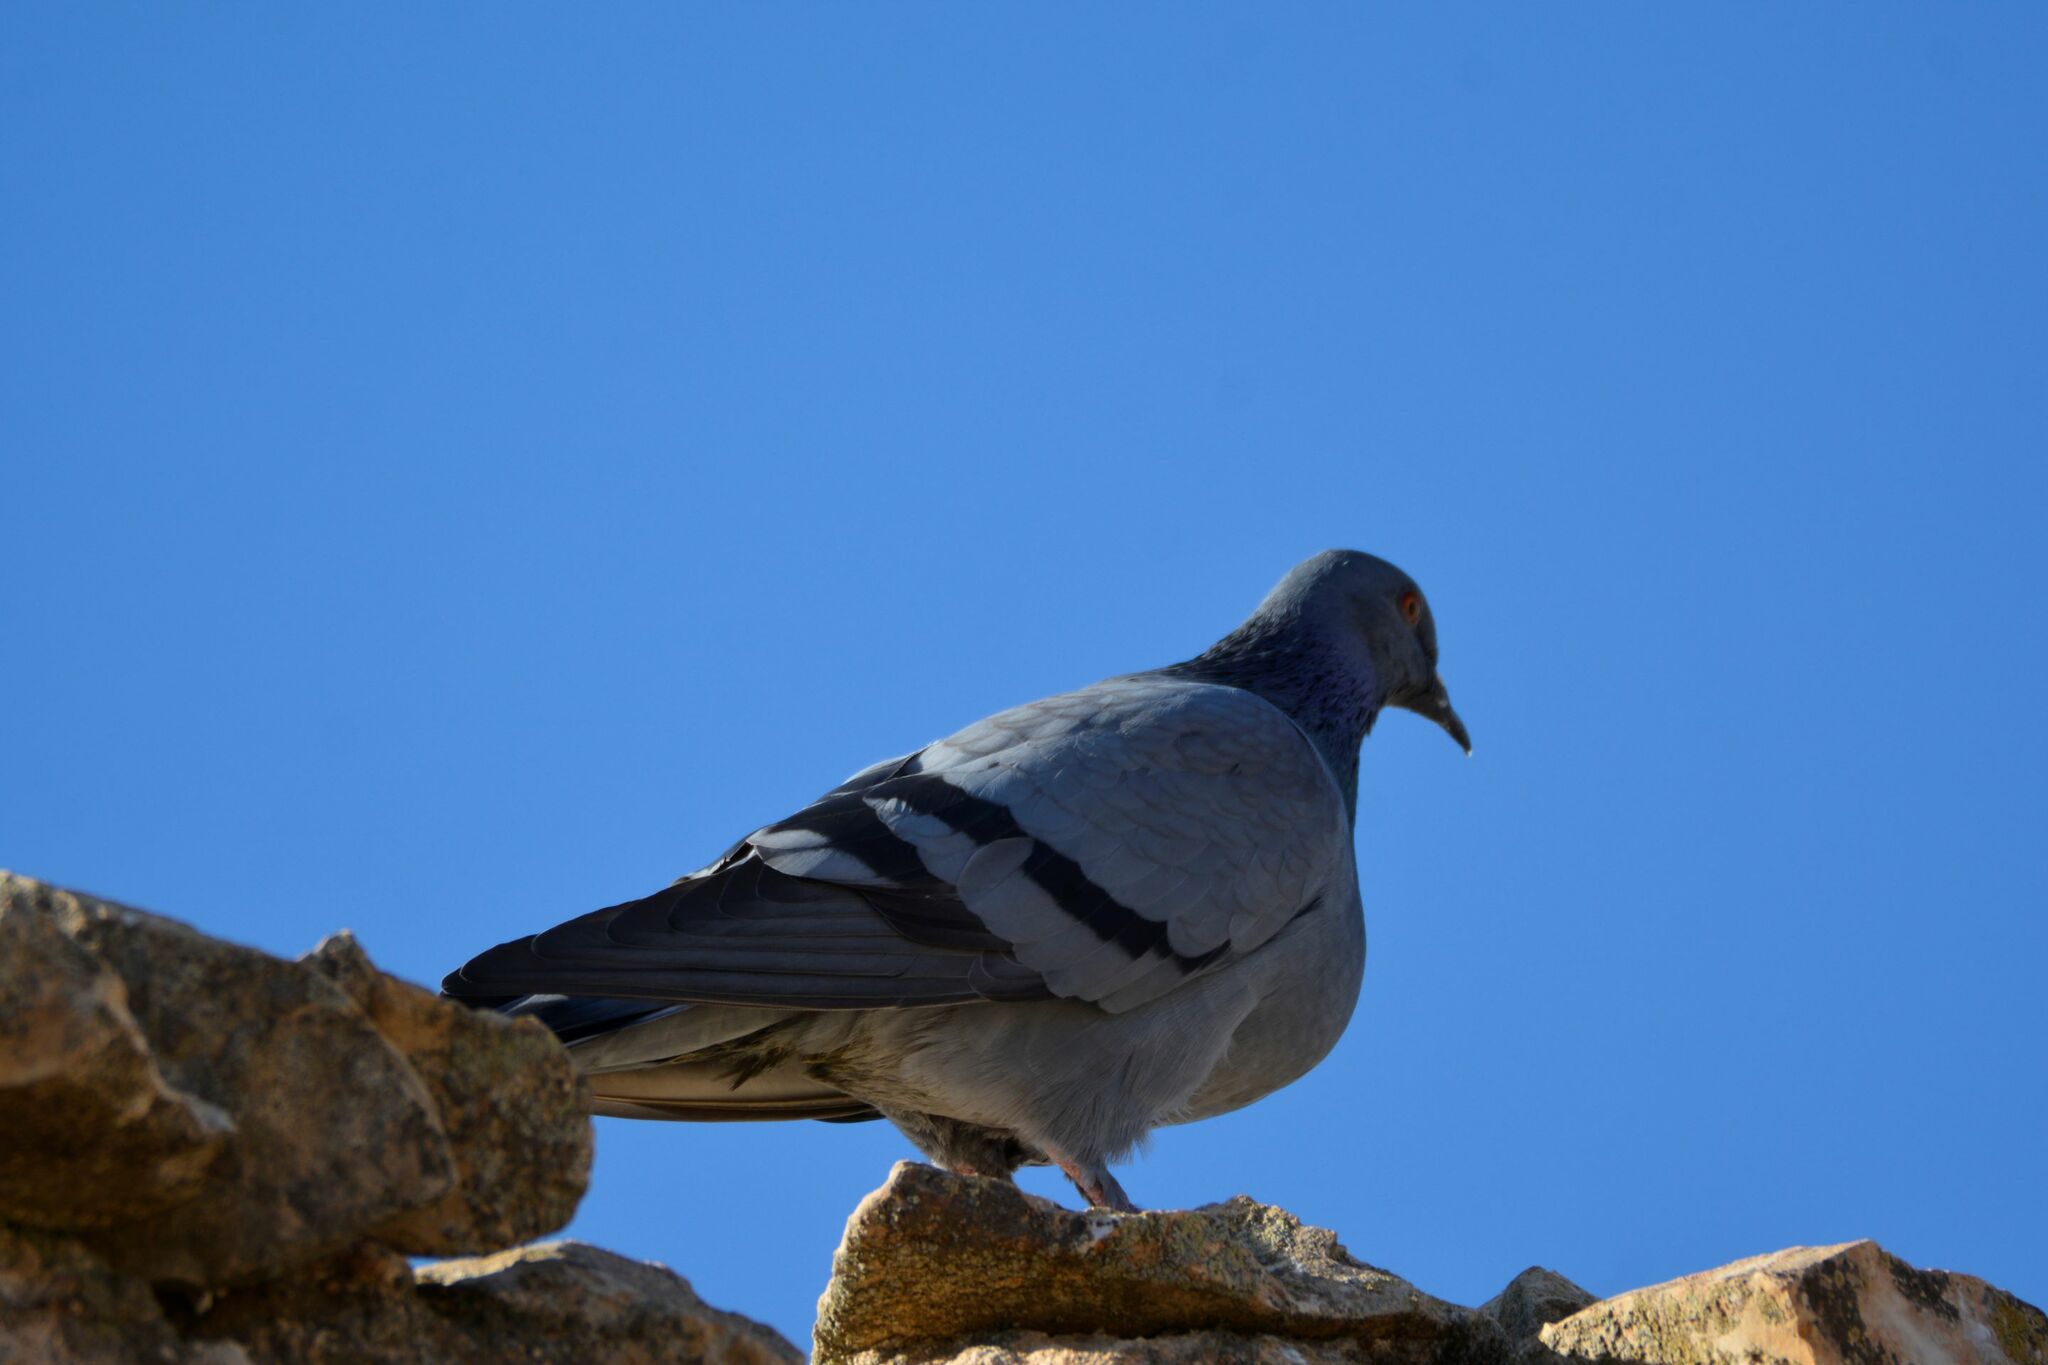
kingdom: Animalia
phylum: Chordata
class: Aves
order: Columbiformes
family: Columbidae
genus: Columba
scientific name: Columba livia
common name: Rock pigeon
